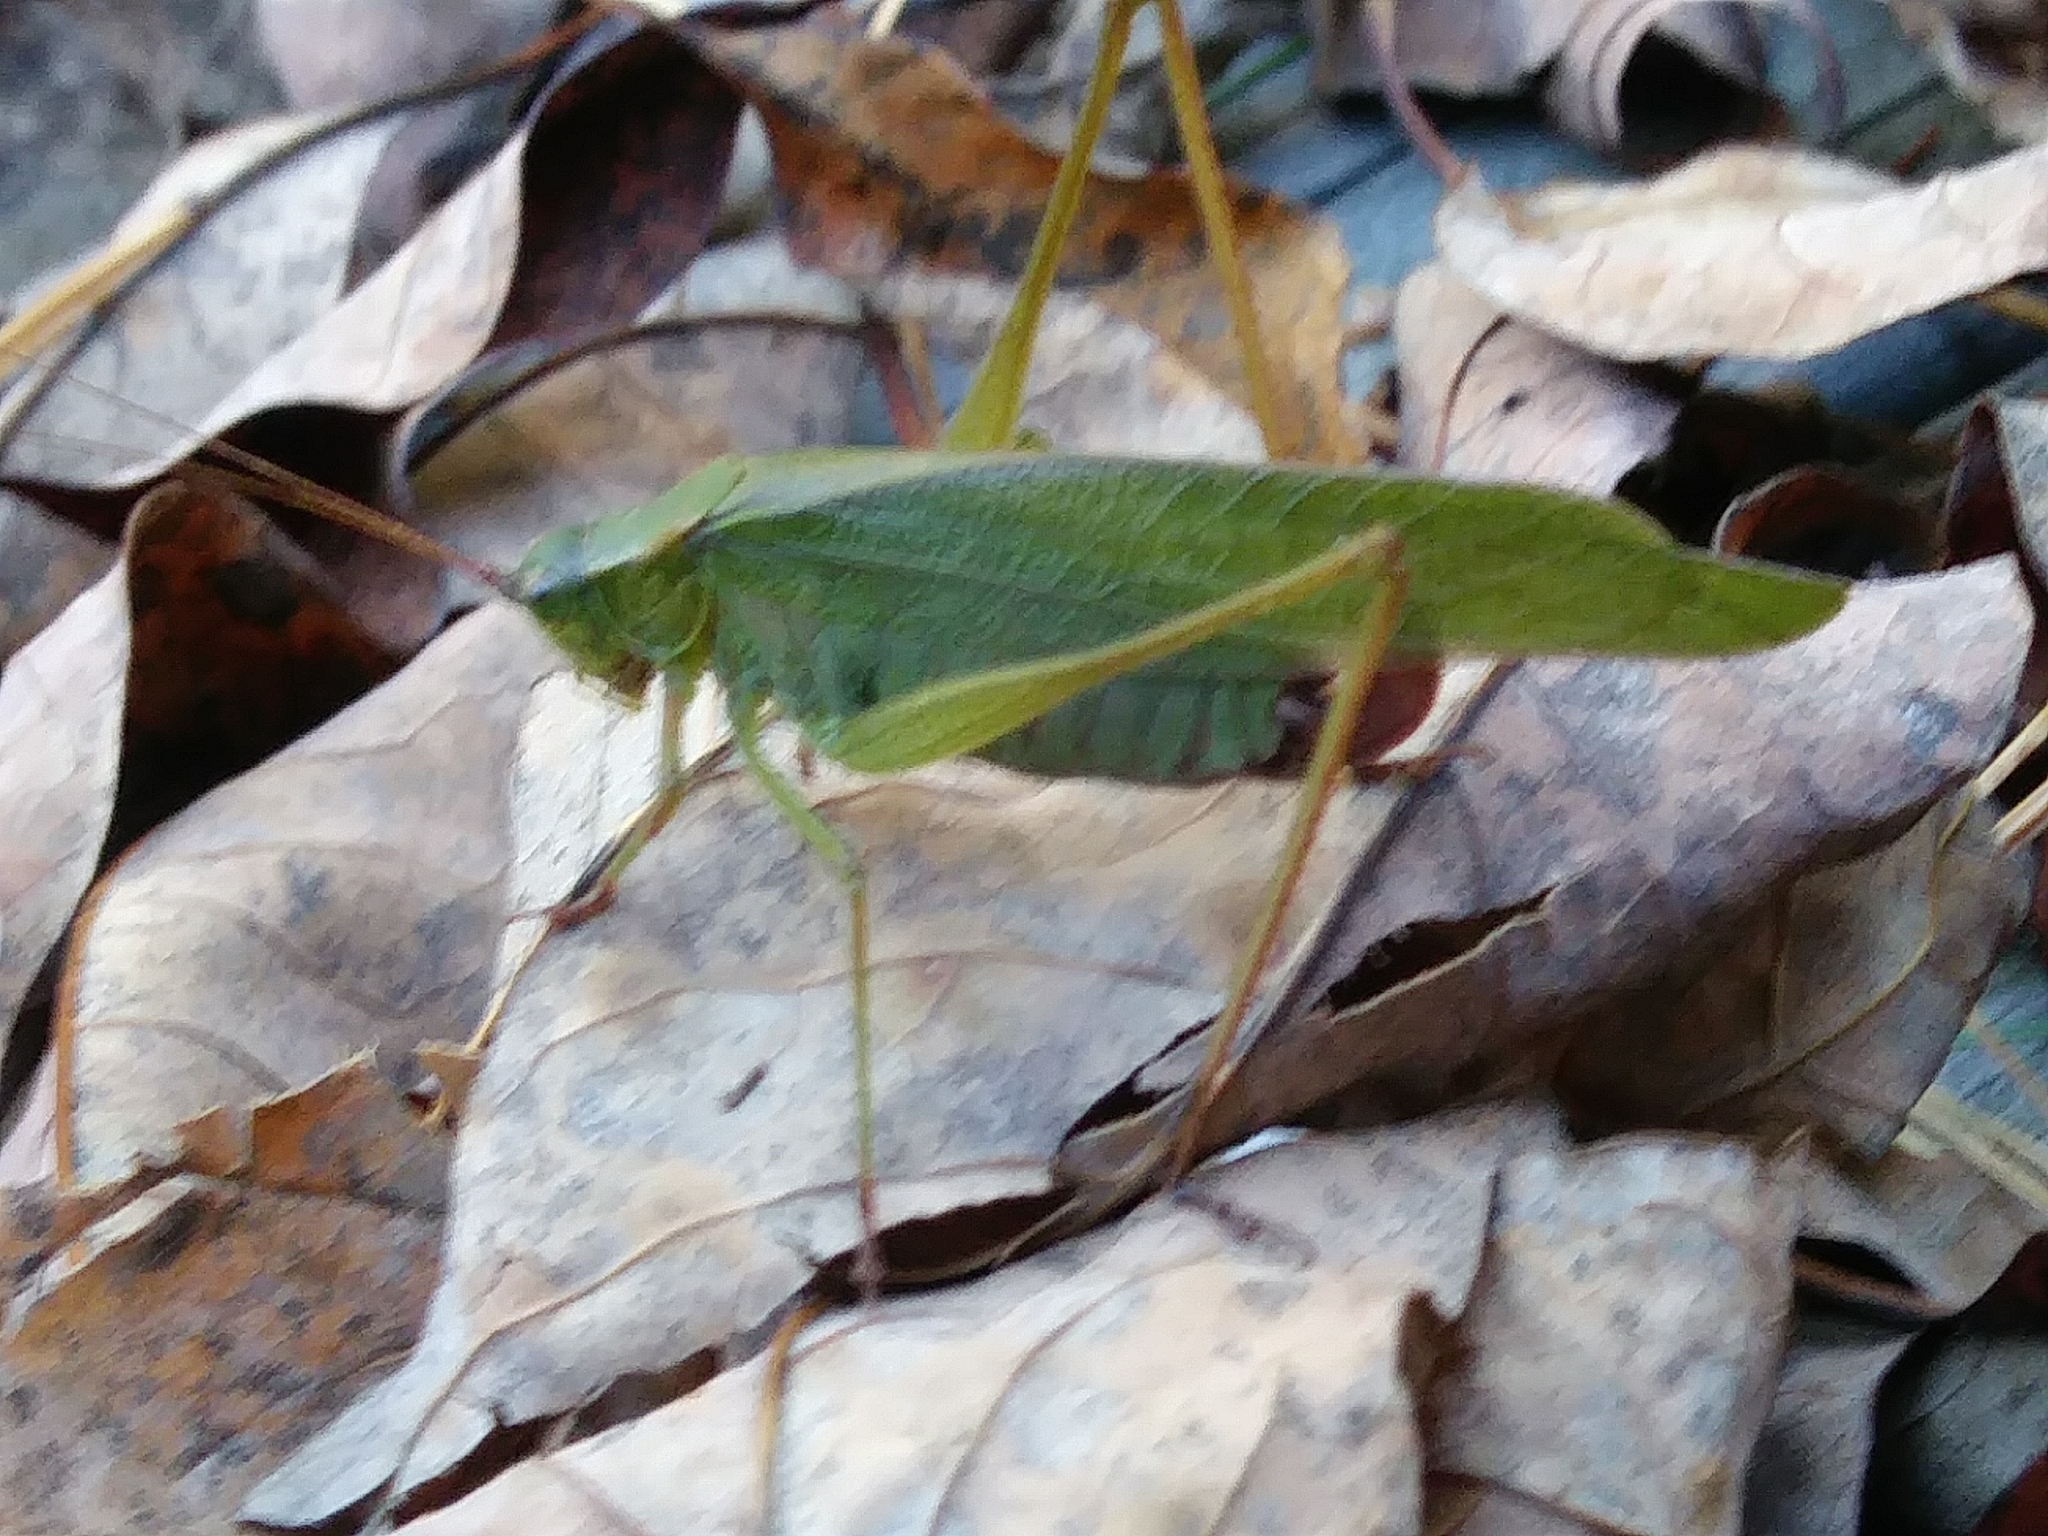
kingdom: Animalia
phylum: Arthropoda
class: Insecta
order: Orthoptera
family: Tettigoniidae
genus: Scudderia
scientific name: Scudderia furcata
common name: Fork-tailed bush katydid
